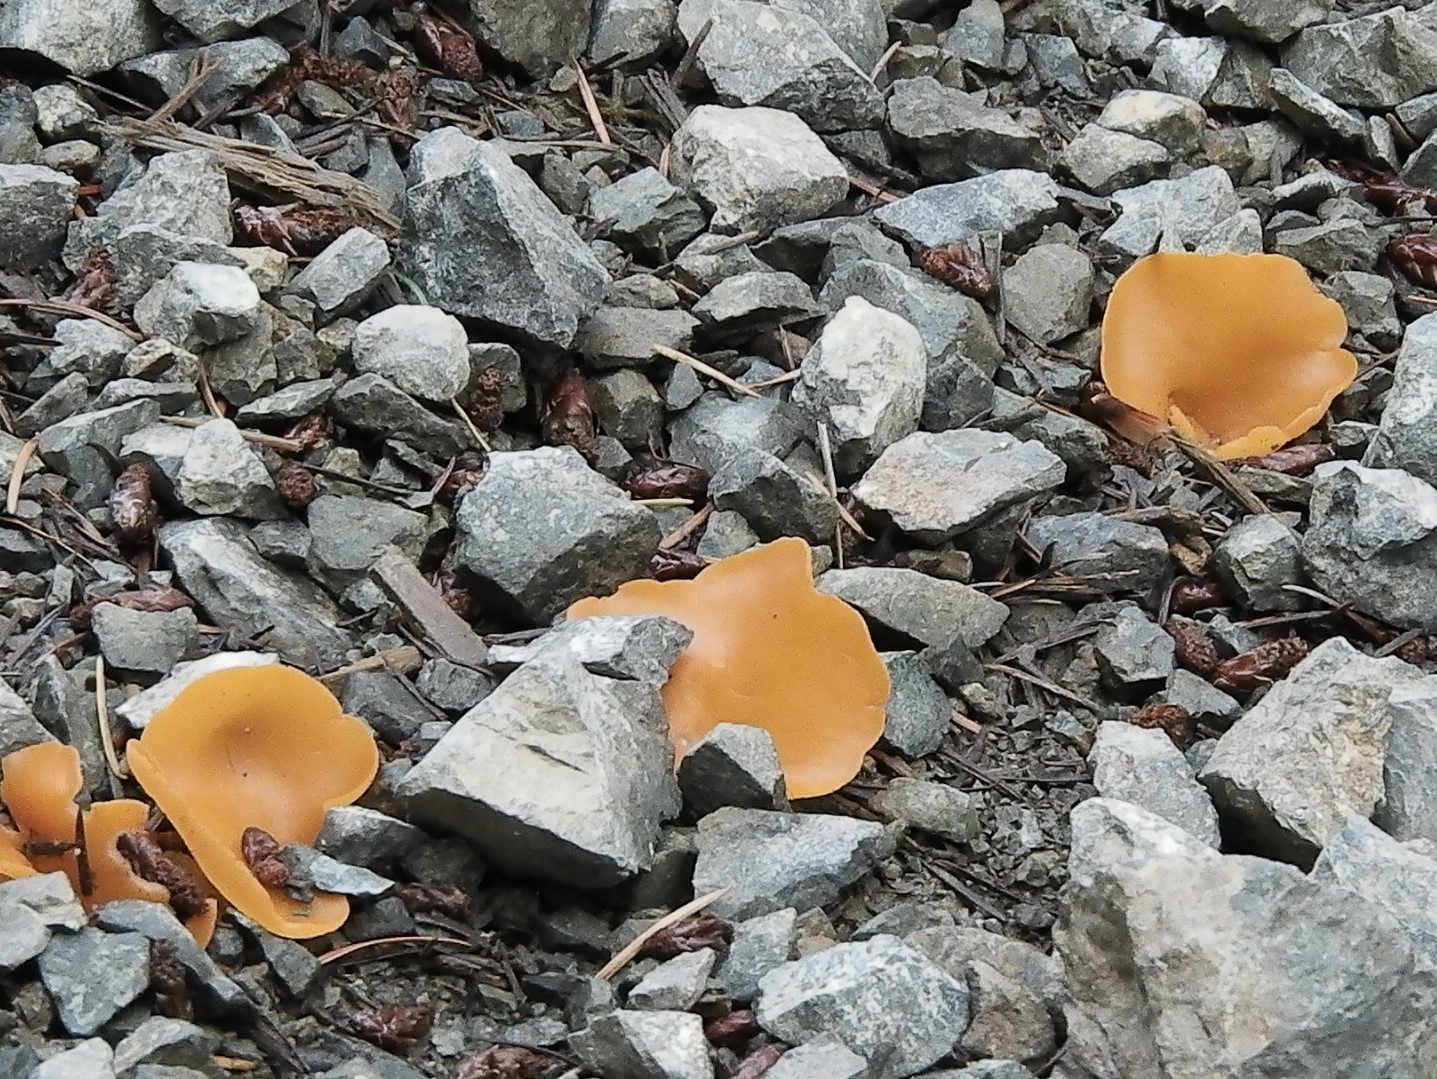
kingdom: Fungi
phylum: Ascomycota
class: Pezizomycetes
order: Pezizales
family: Pyronemataceae
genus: Aleuria
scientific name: Aleuria aurantia
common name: Orange peel fungus
